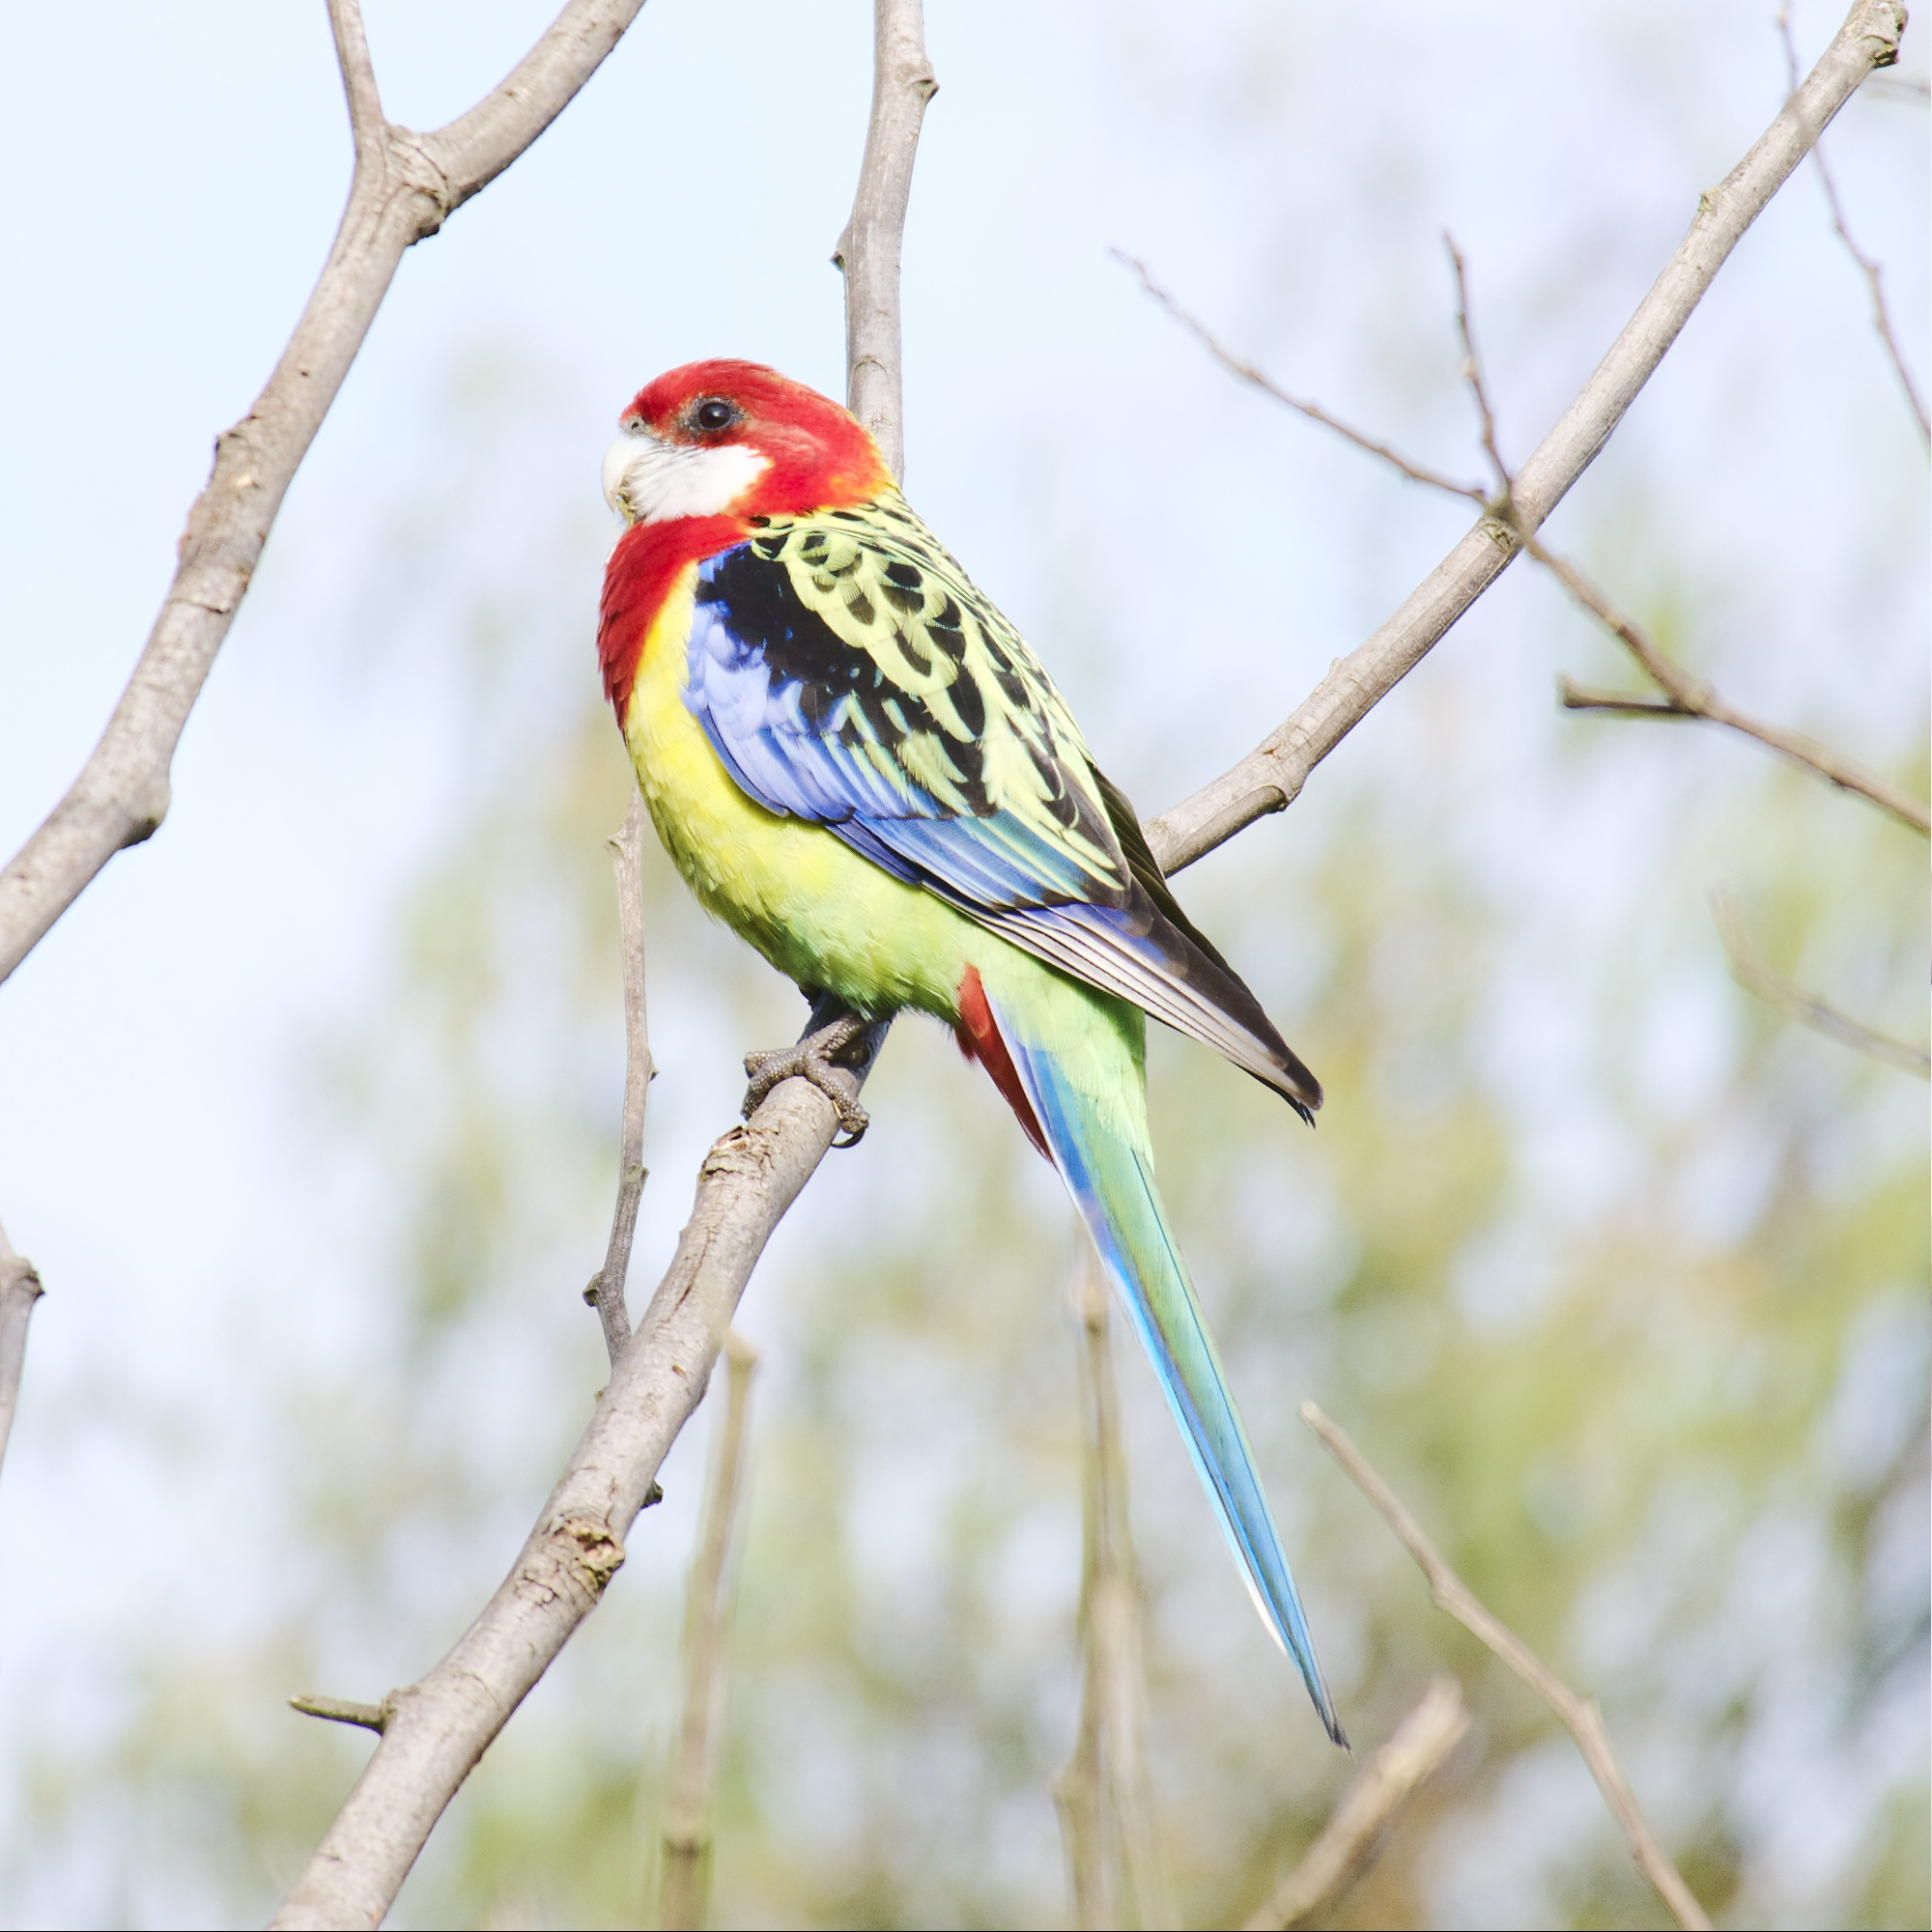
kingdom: Animalia
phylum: Chordata
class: Aves
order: Psittaciformes
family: Psittacidae
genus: Platycercus
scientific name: Platycercus eximius
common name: Eastern rosella
